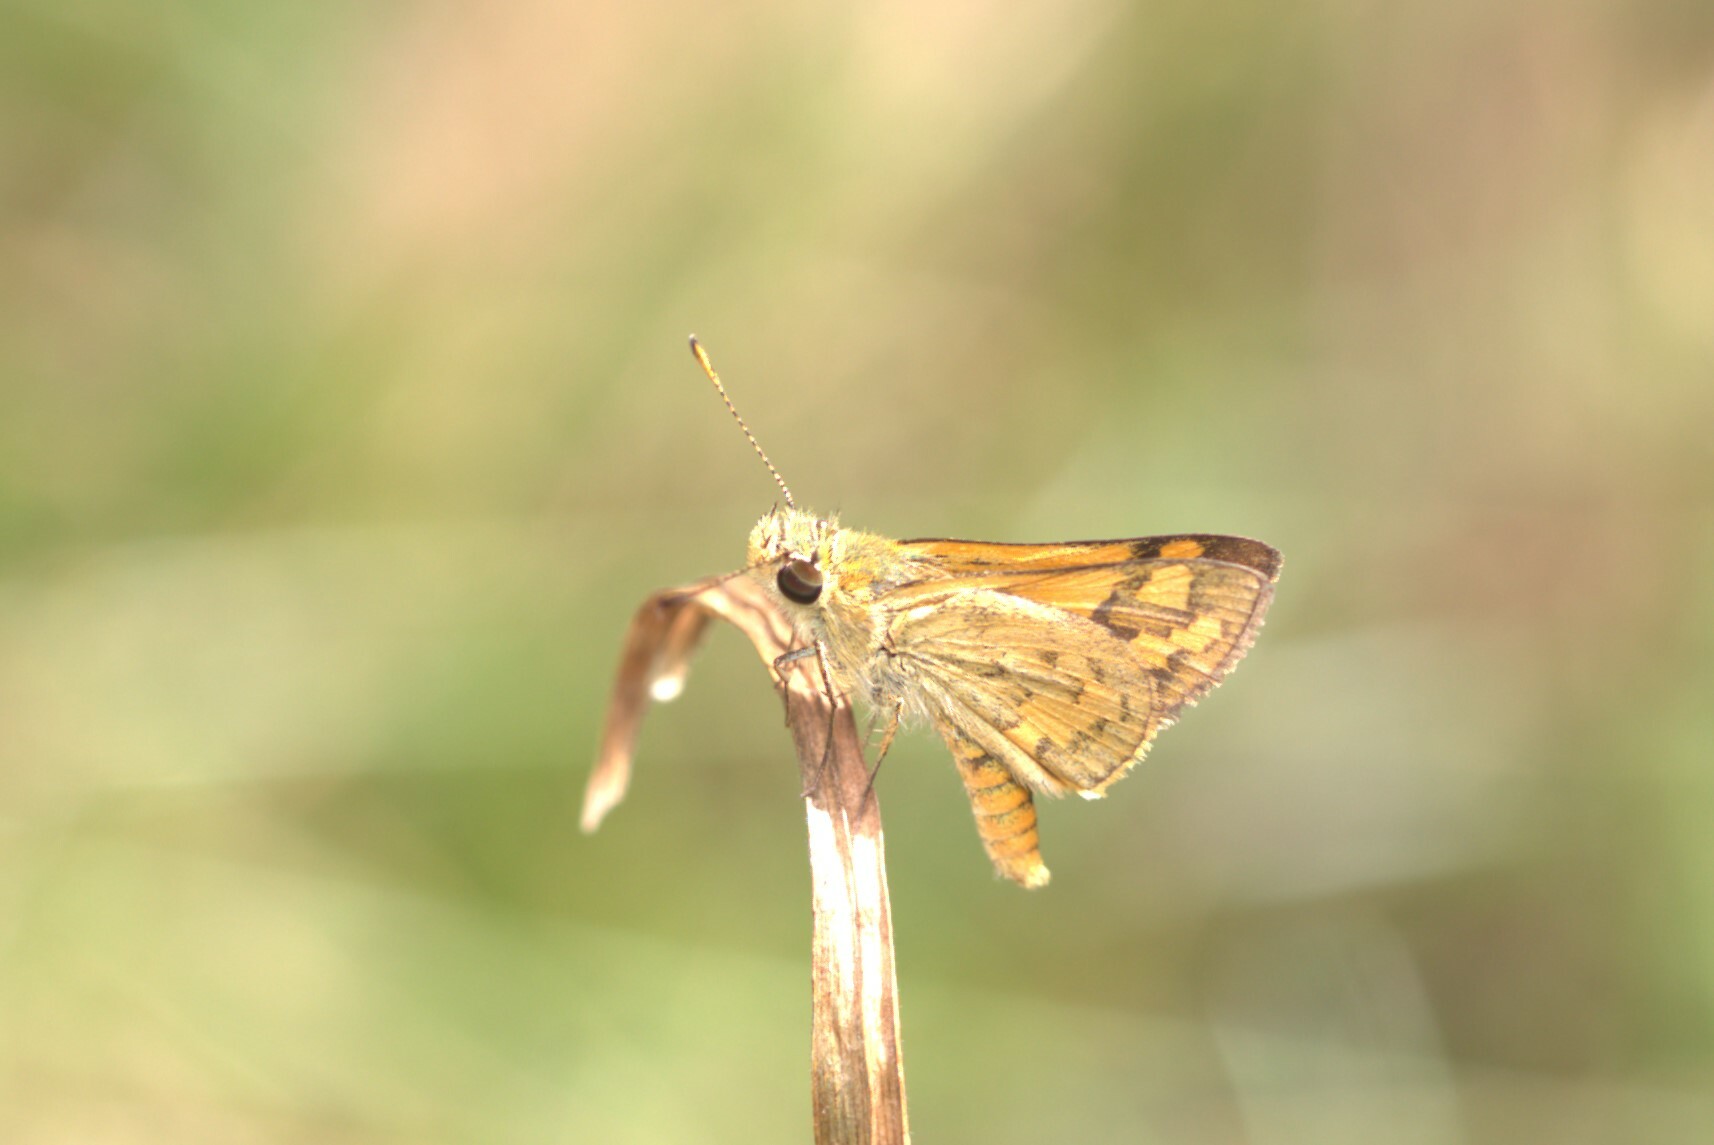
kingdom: Animalia
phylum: Arthropoda
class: Insecta
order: Lepidoptera
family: Hesperiidae
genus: Ocybadistes
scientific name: Ocybadistes walkeri
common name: Yellow-banded dart
